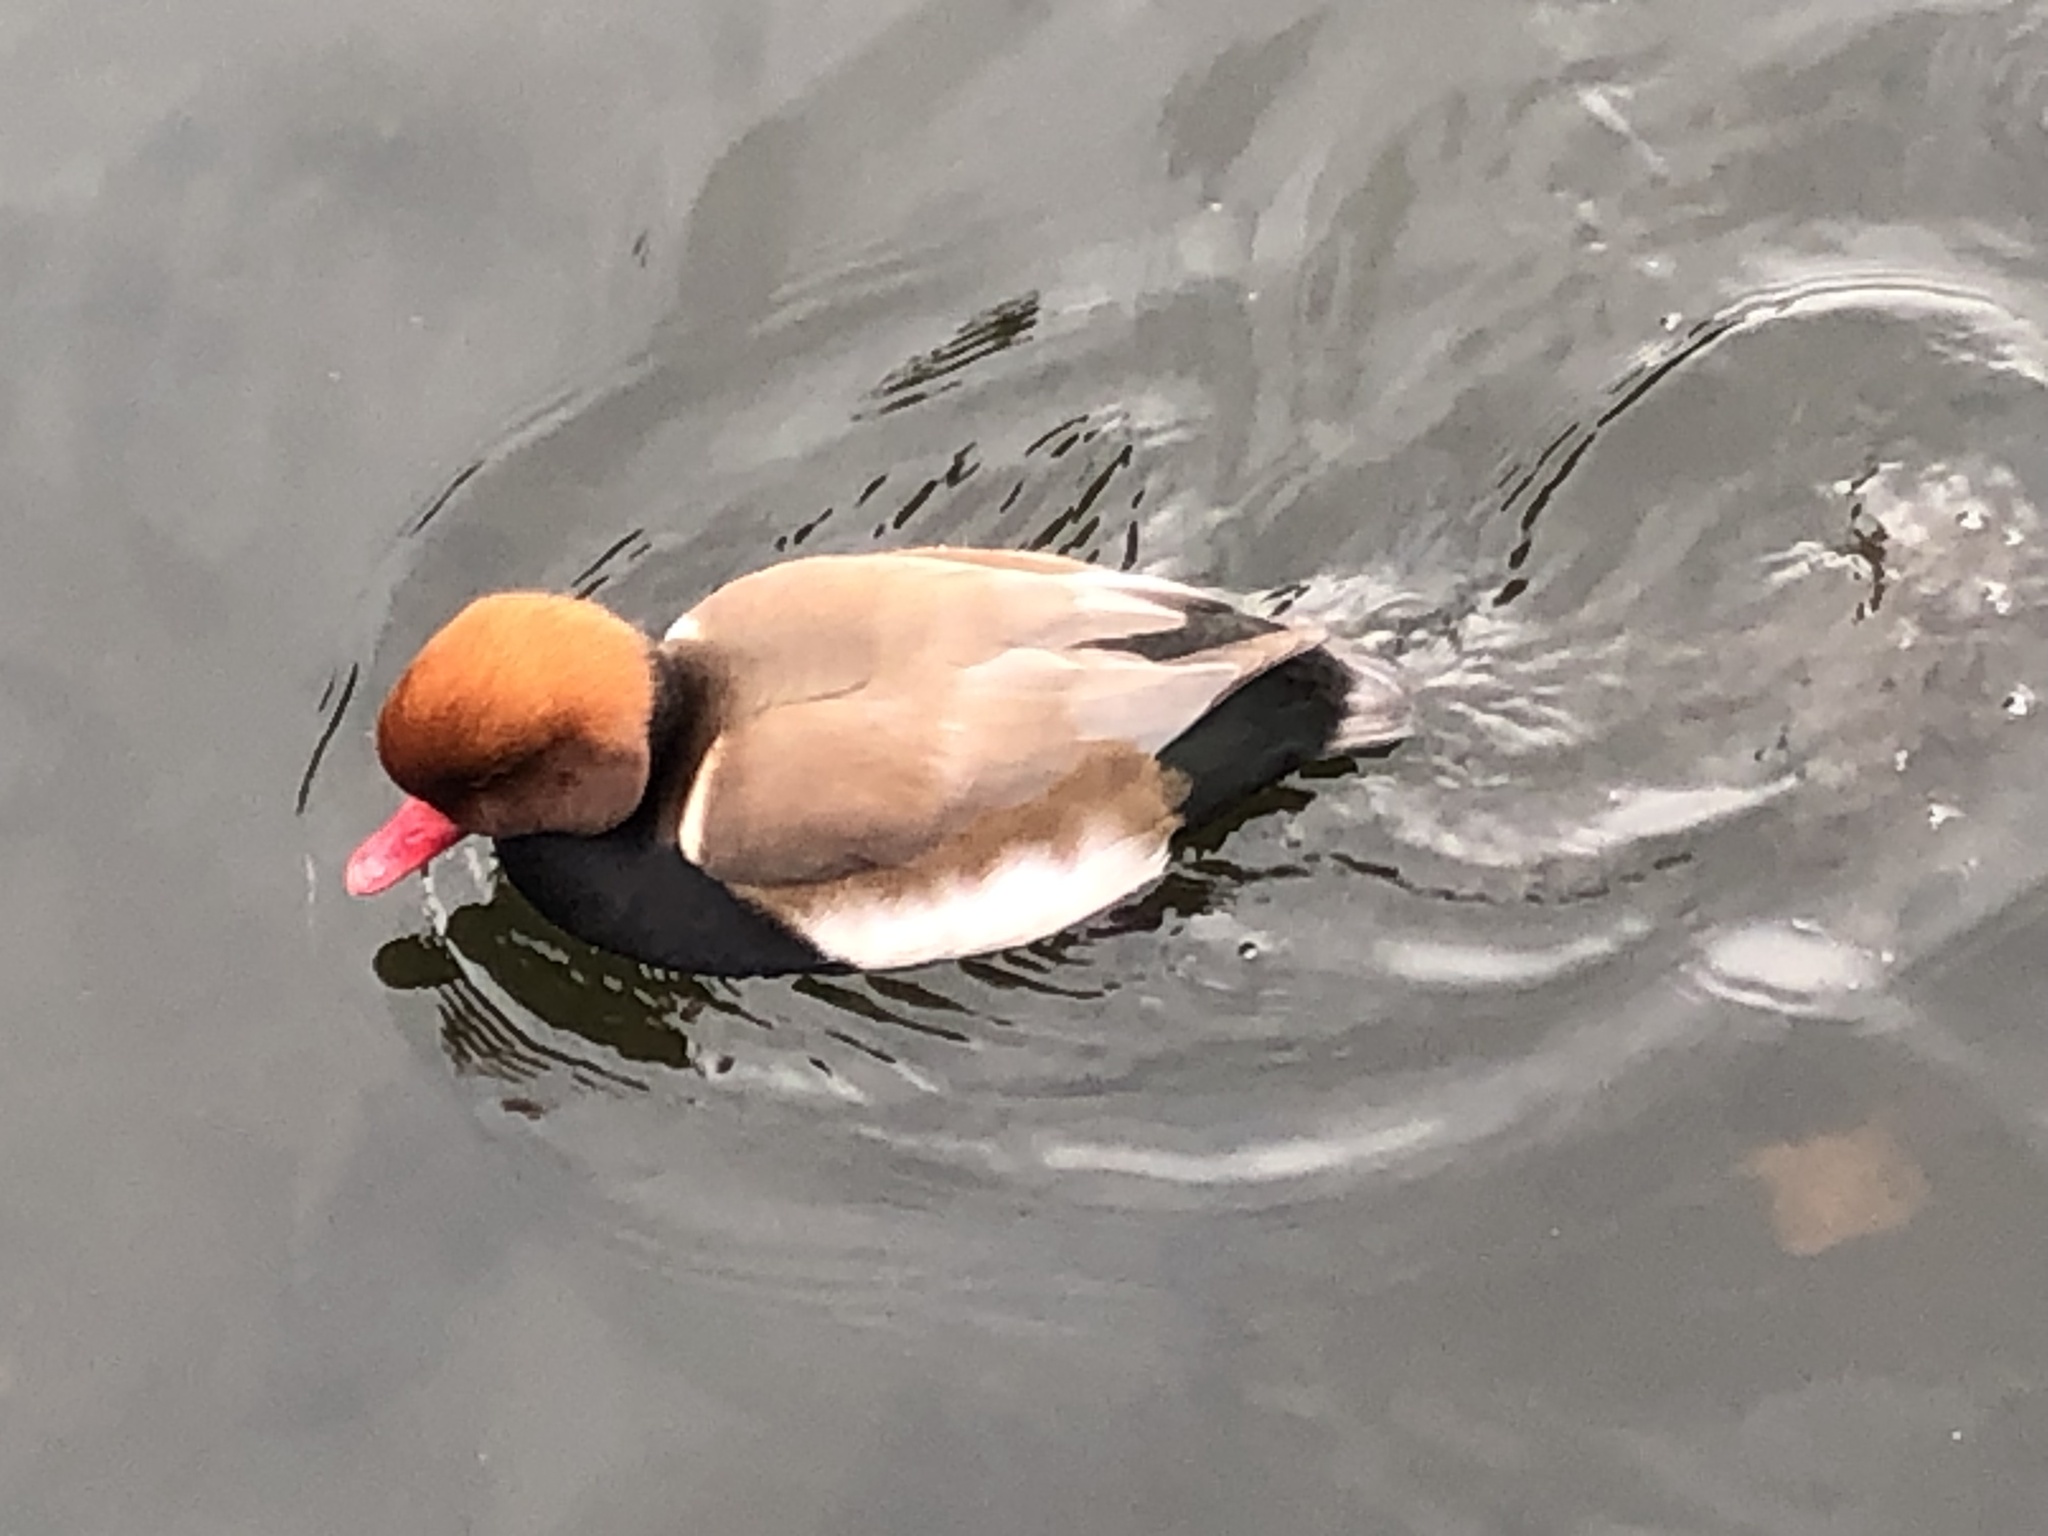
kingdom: Animalia
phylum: Chordata
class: Aves
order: Anseriformes
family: Anatidae
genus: Netta
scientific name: Netta rufina
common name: Red-crested pochard
